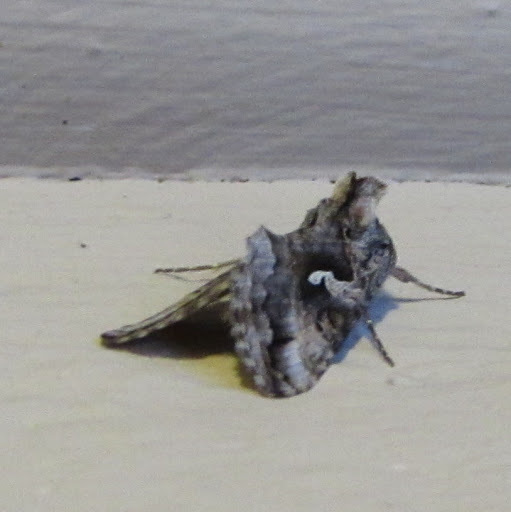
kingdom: Animalia
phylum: Arthropoda
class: Insecta
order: Lepidoptera
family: Noctuidae
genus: Autographa
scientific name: Autographa californica
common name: Alfalfa looper
